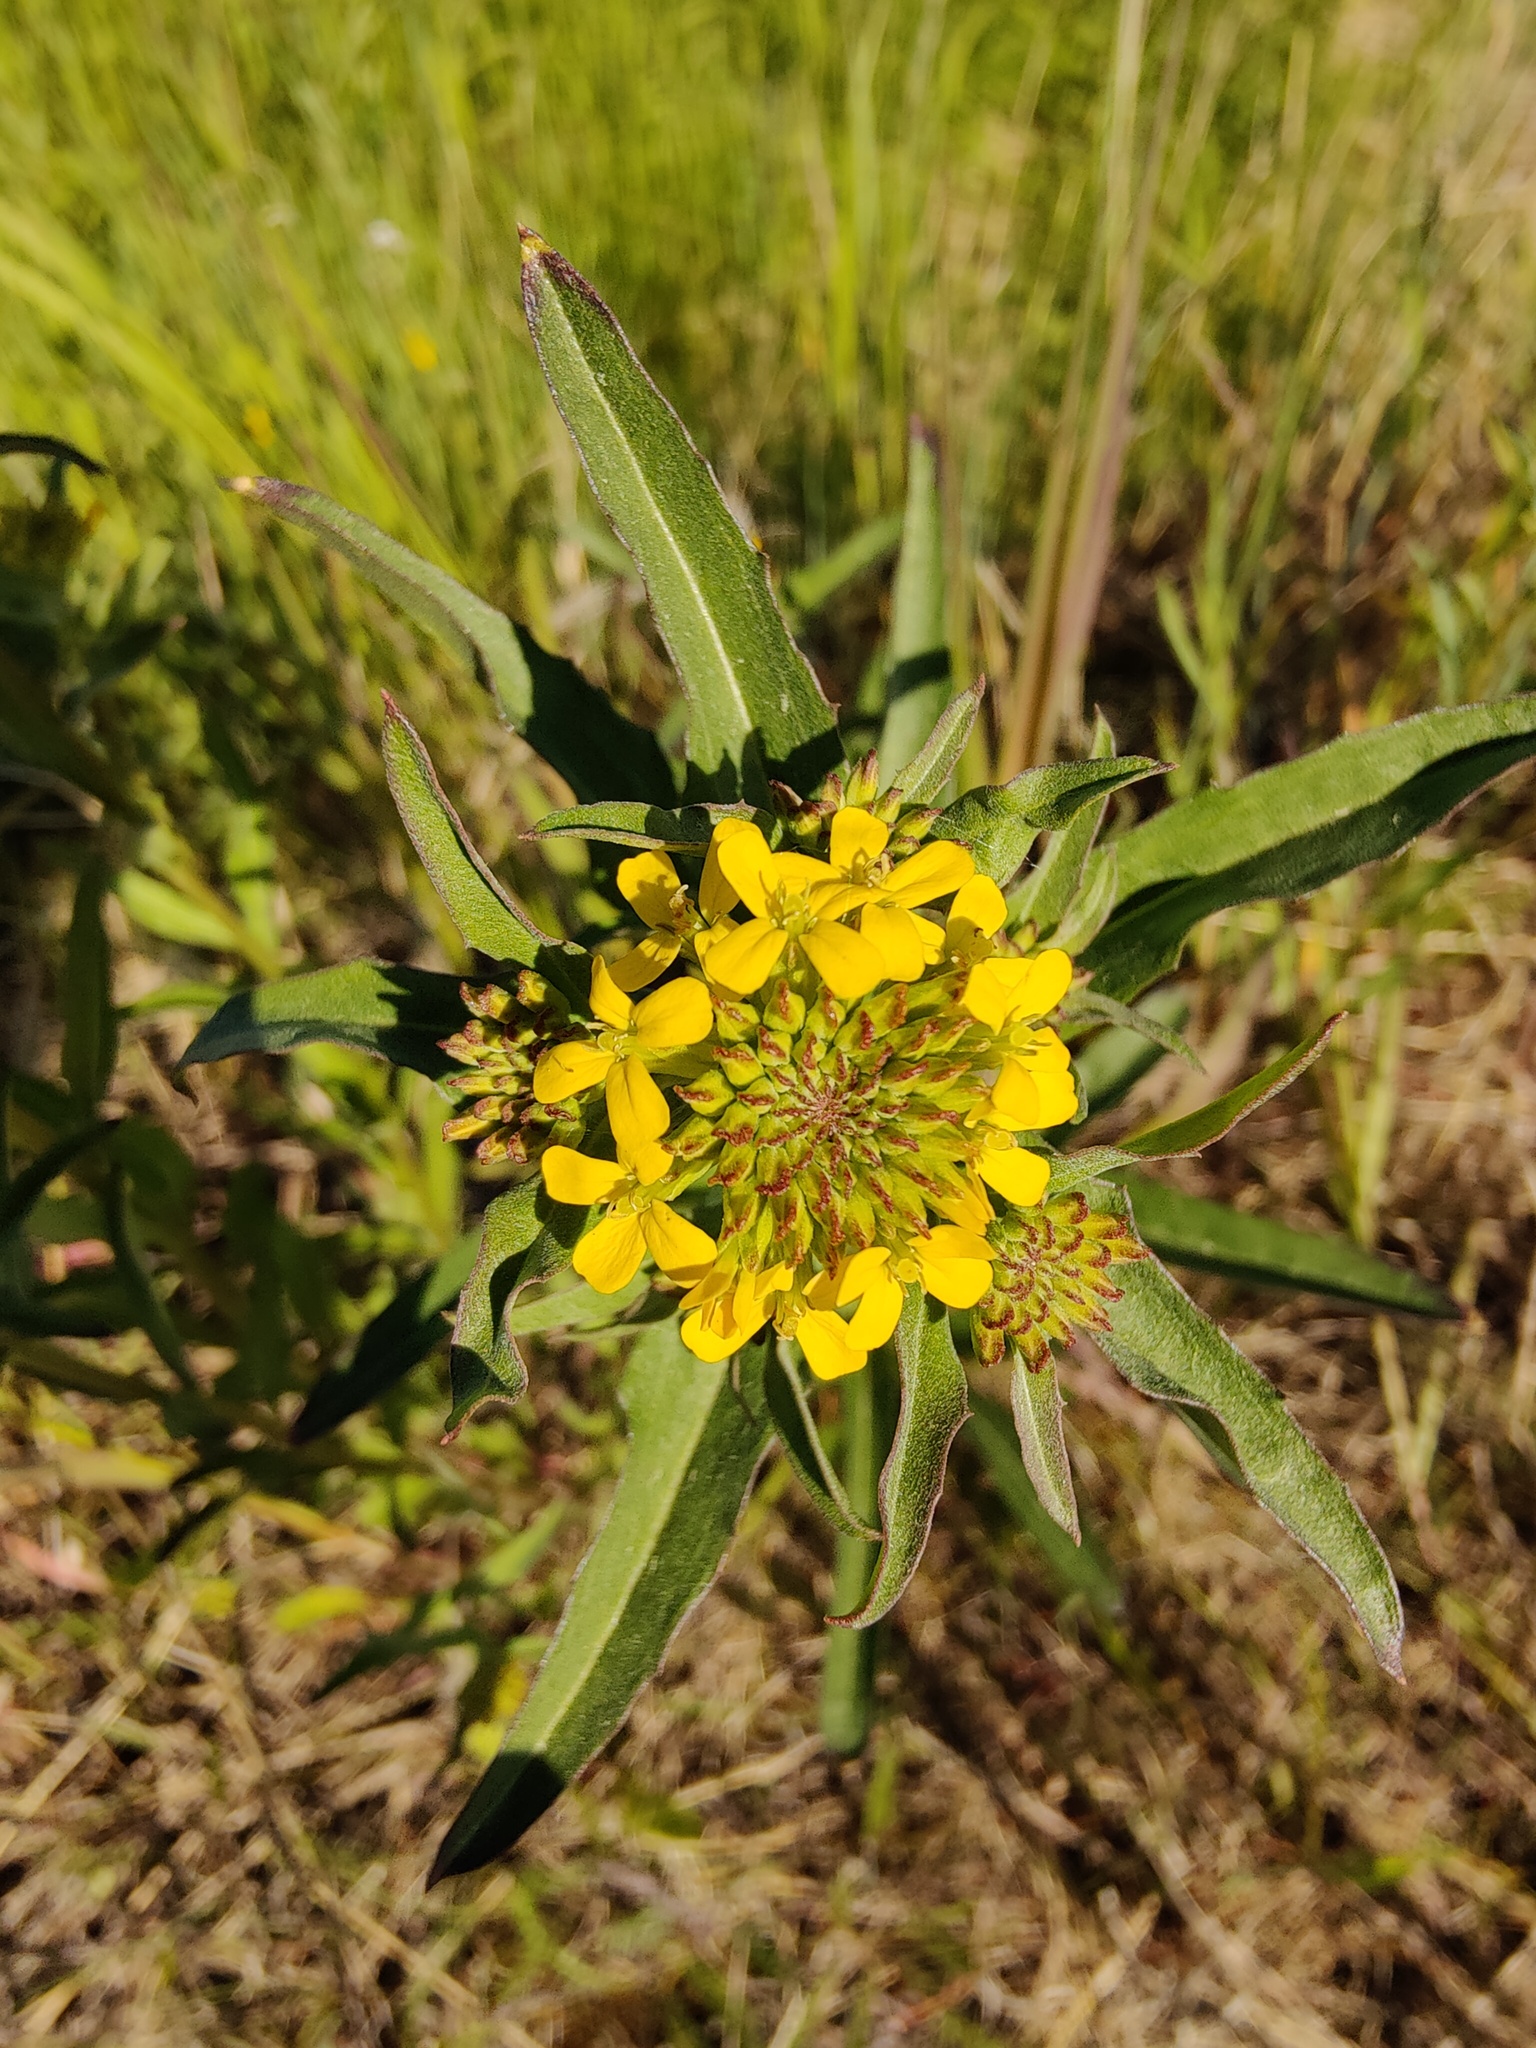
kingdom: Plantae
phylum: Tracheophyta
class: Magnoliopsida
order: Brassicales
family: Brassicaceae
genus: Erysimum
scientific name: Erysimum hieraciifolium
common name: European wallflower
